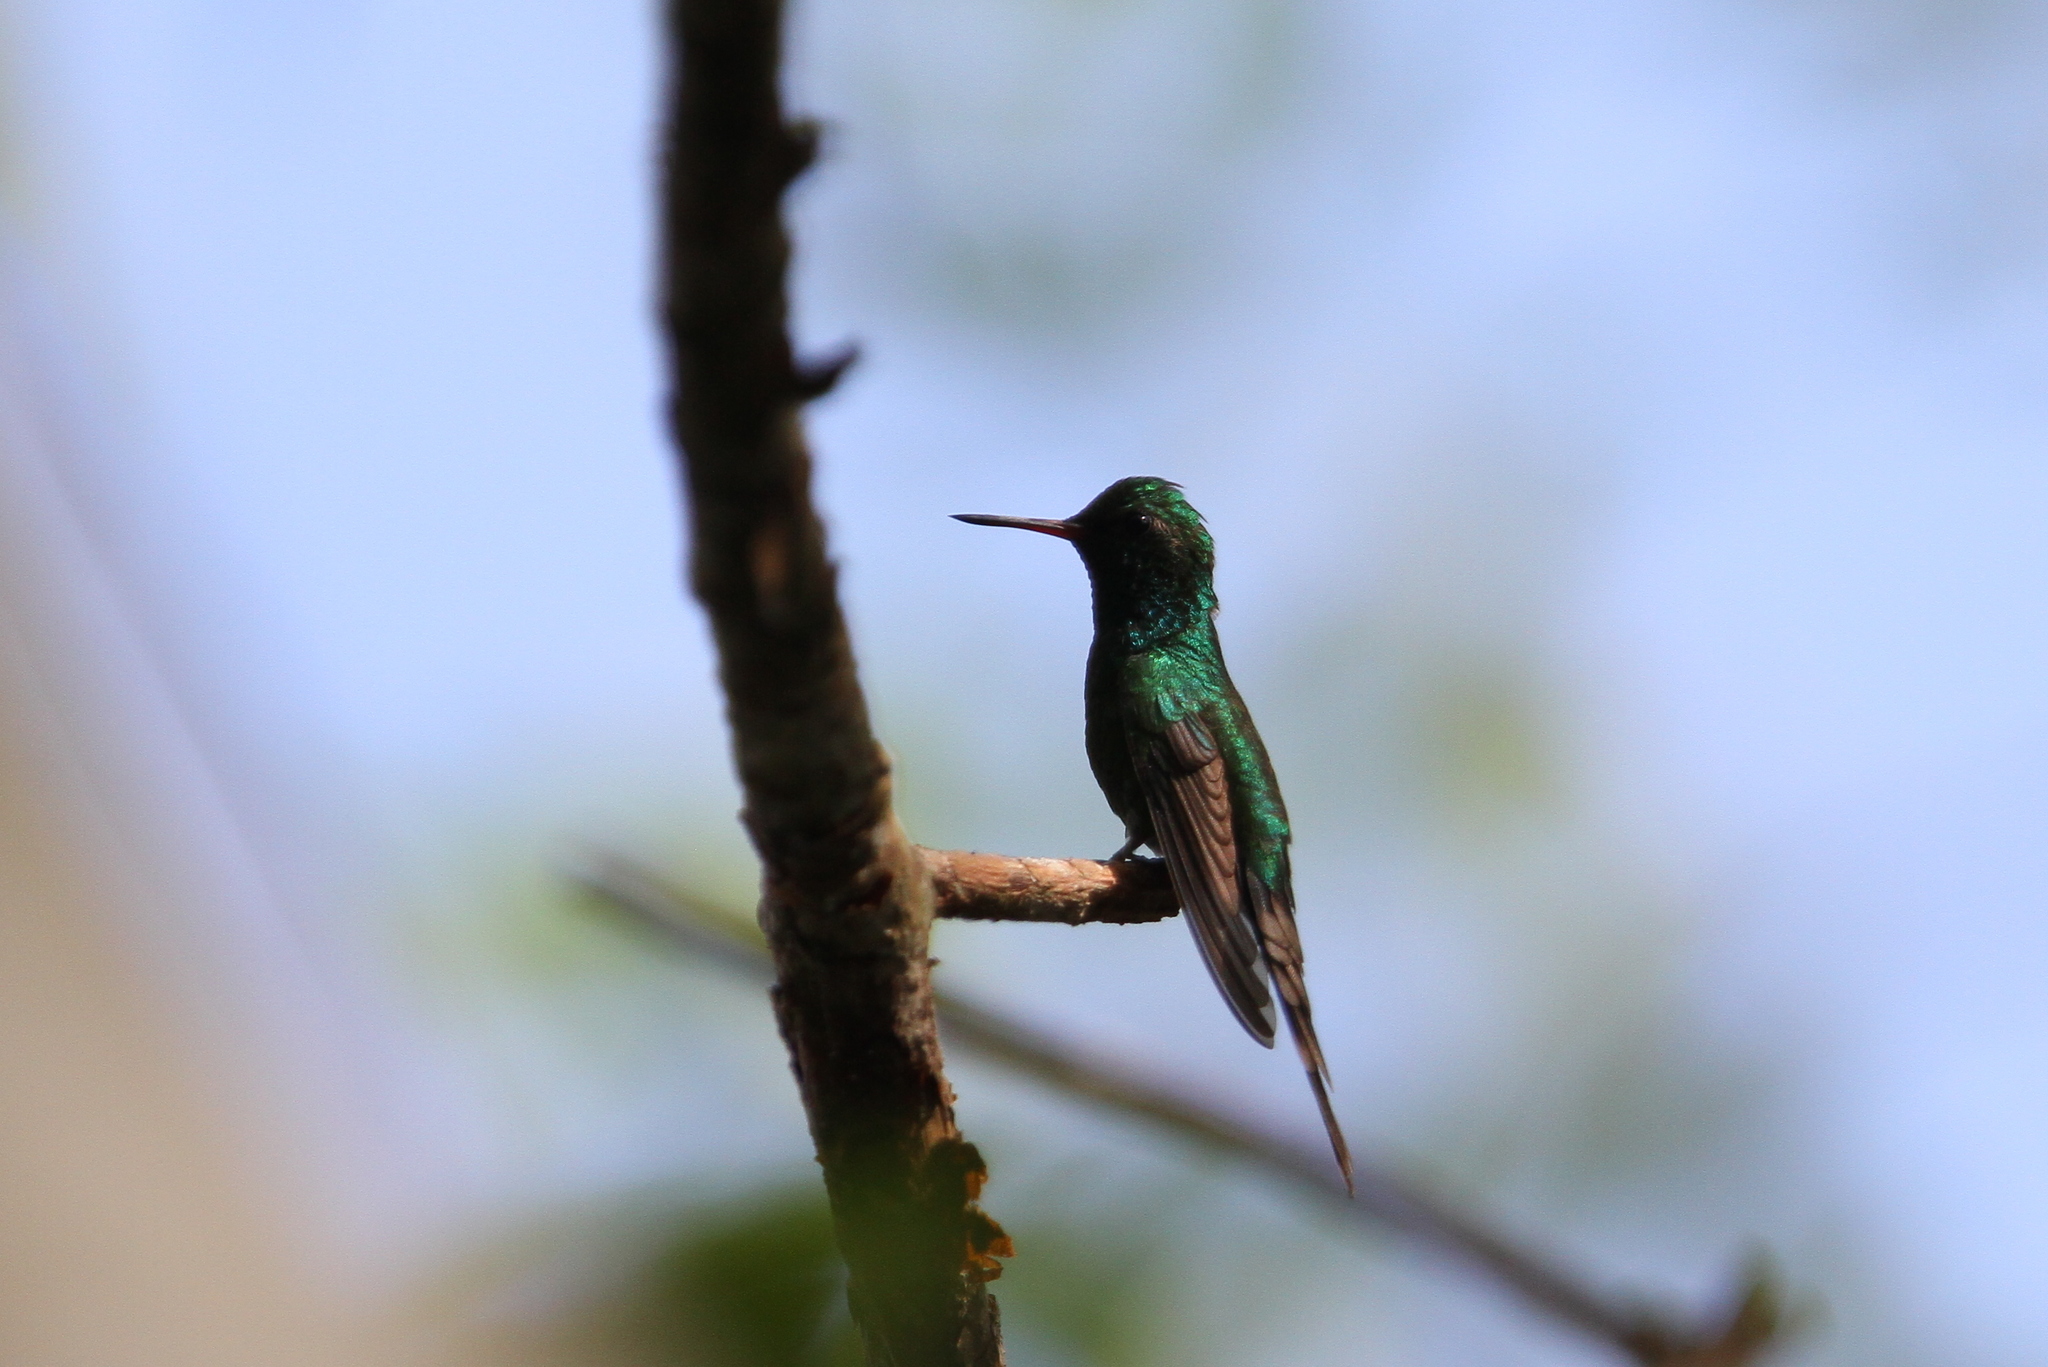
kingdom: Animalia
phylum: Chordata
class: Aves
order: Apodiformes
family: Trochilidae
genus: Cynanthus
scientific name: Cynanthus auriceps
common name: Golden-crowned emerald
